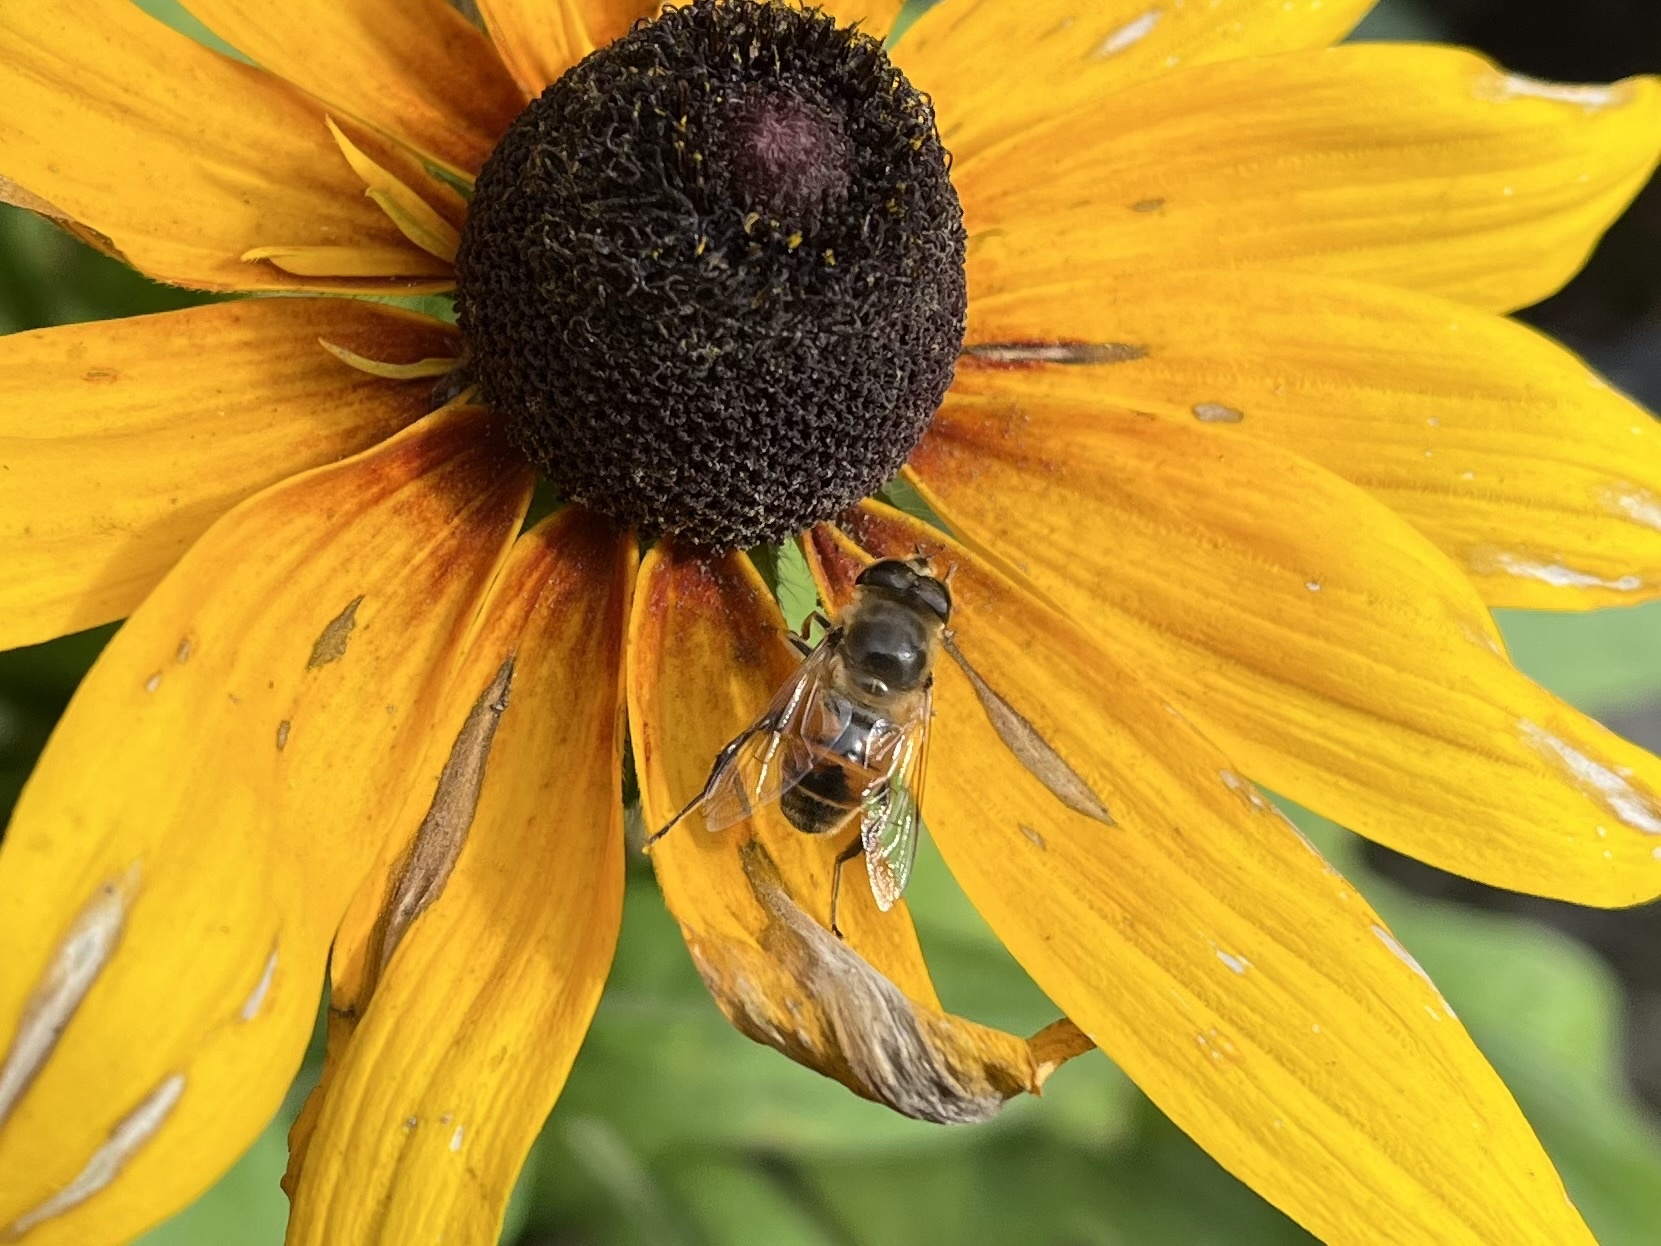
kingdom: Animalia
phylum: Arthropoda
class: Insecta
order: Diptera
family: Syrphidae
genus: Eristalis
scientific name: Eristalis tenax
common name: Drone fly
